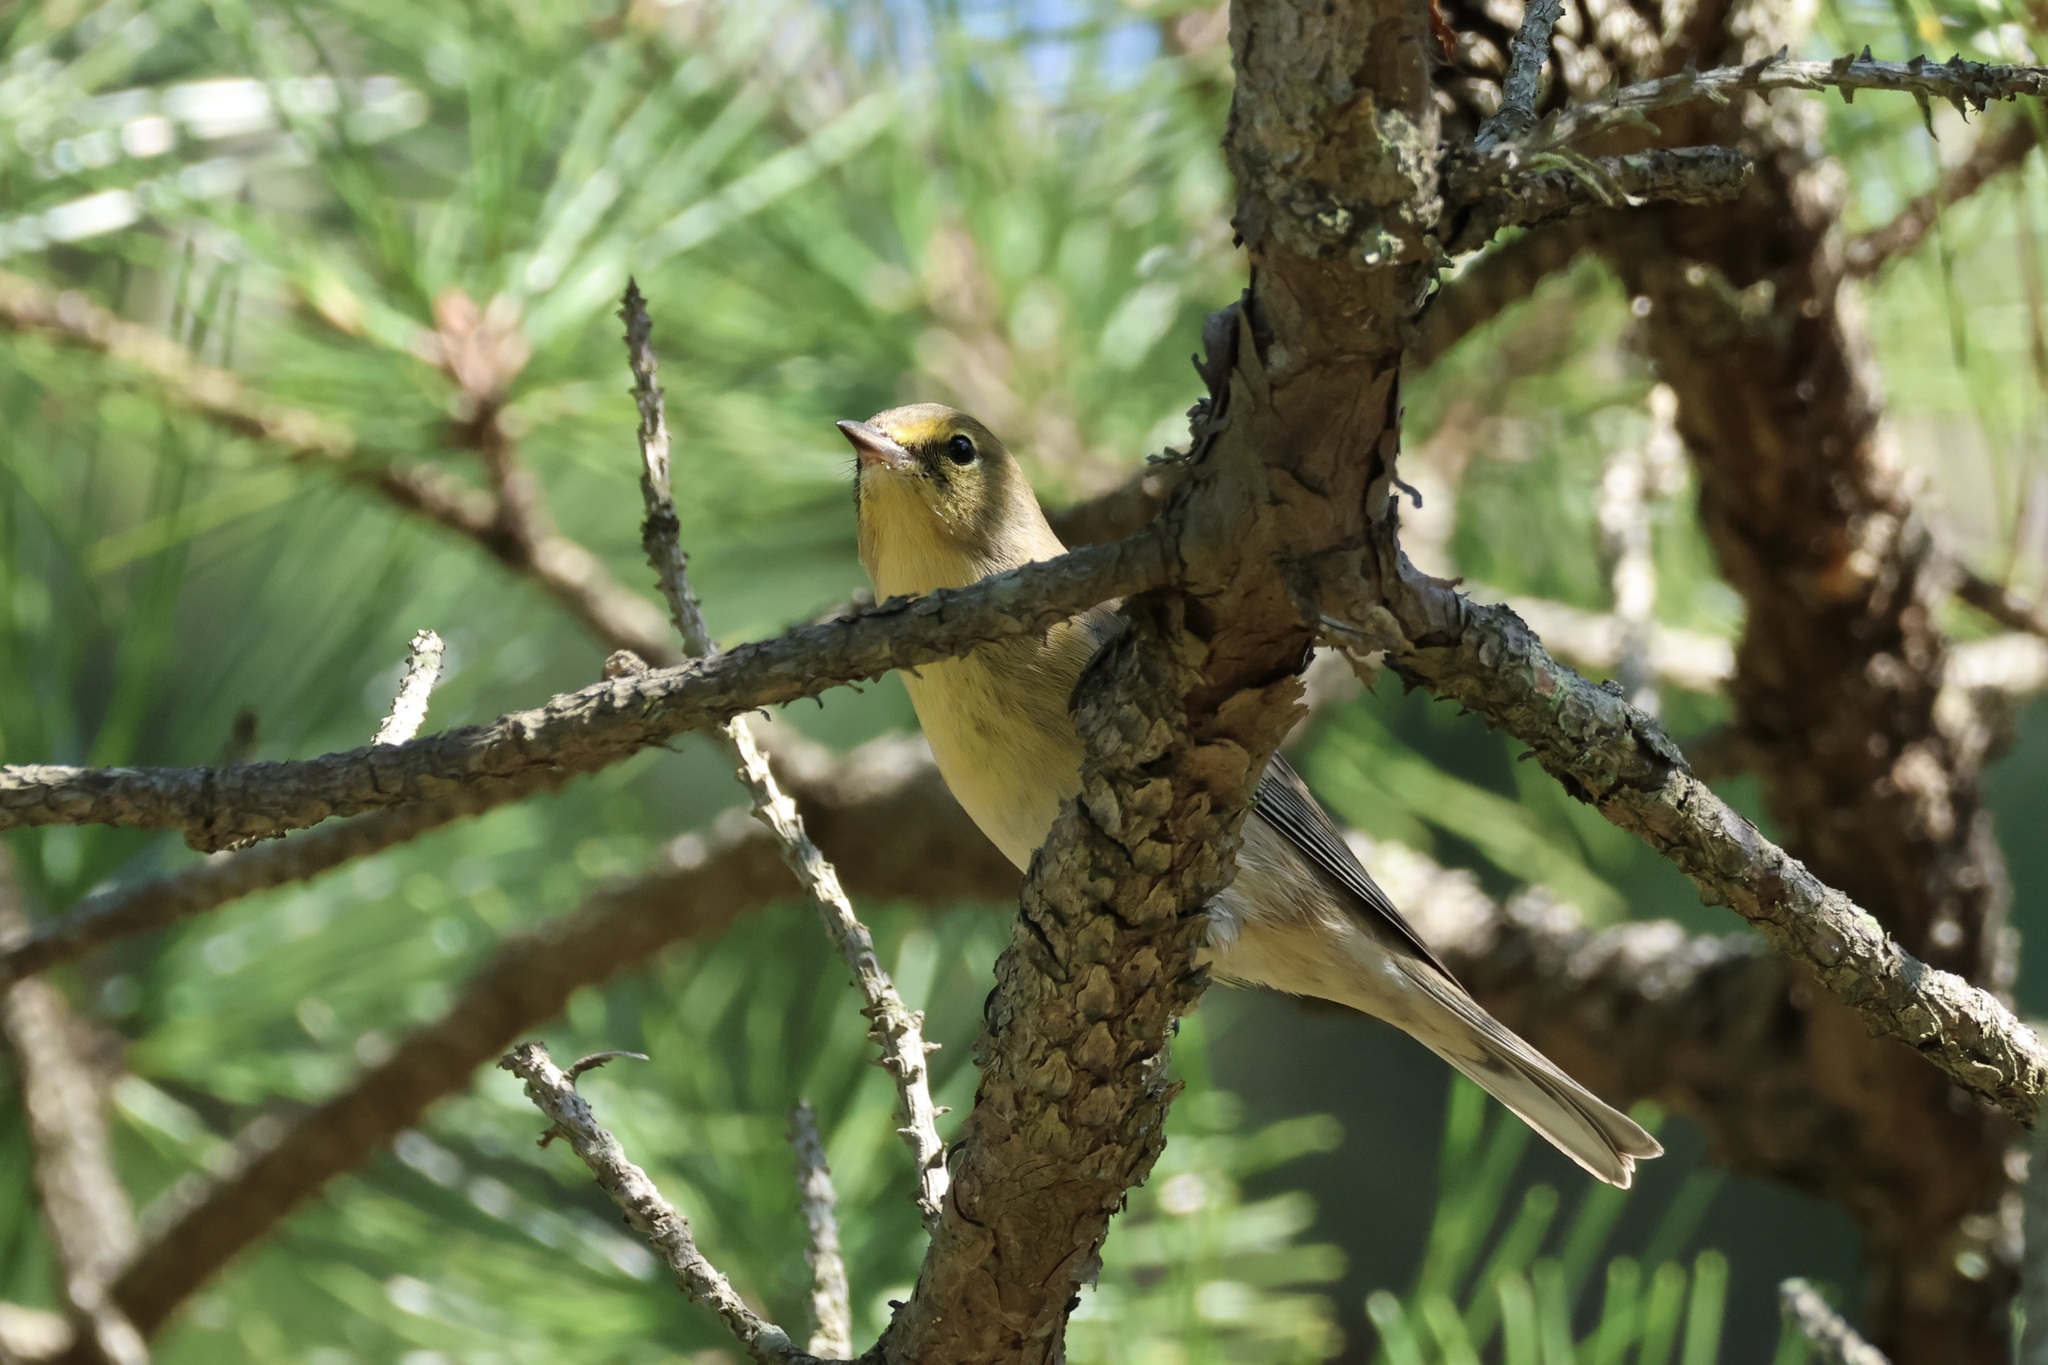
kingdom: Animalia
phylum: Chordata
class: Aves
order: Passeriformes
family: Parulidae
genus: Setophaga
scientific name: Setophaga pinus
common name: Pine warbler
